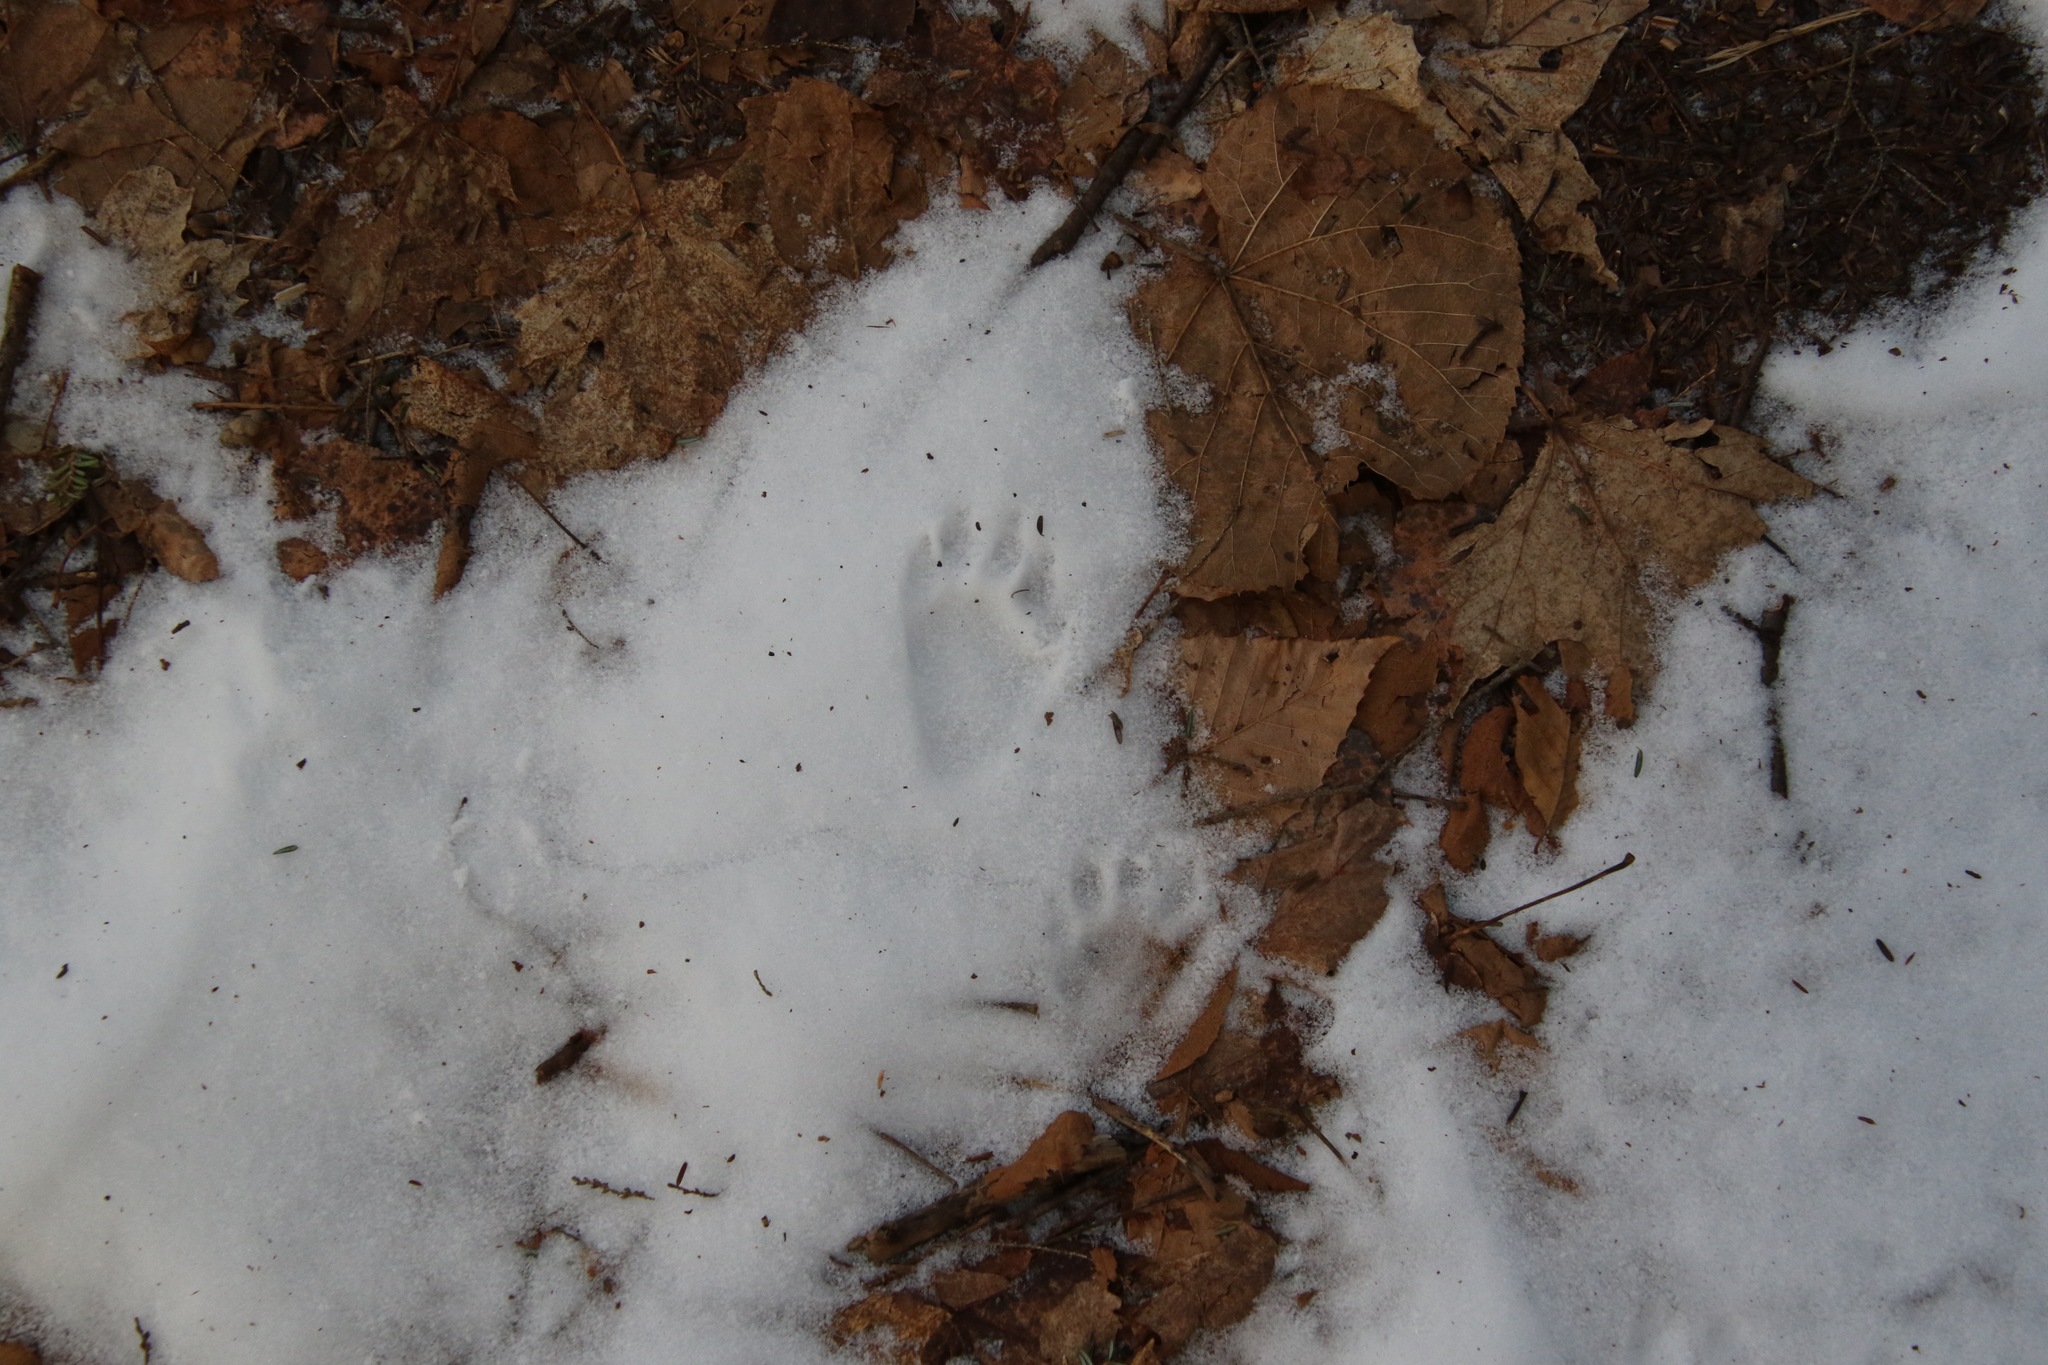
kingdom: Animalia
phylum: Chordata
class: Mammalia
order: Carnivora
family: Procyonidae
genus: Procyon
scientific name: Procyon lotor
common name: Raccoon
